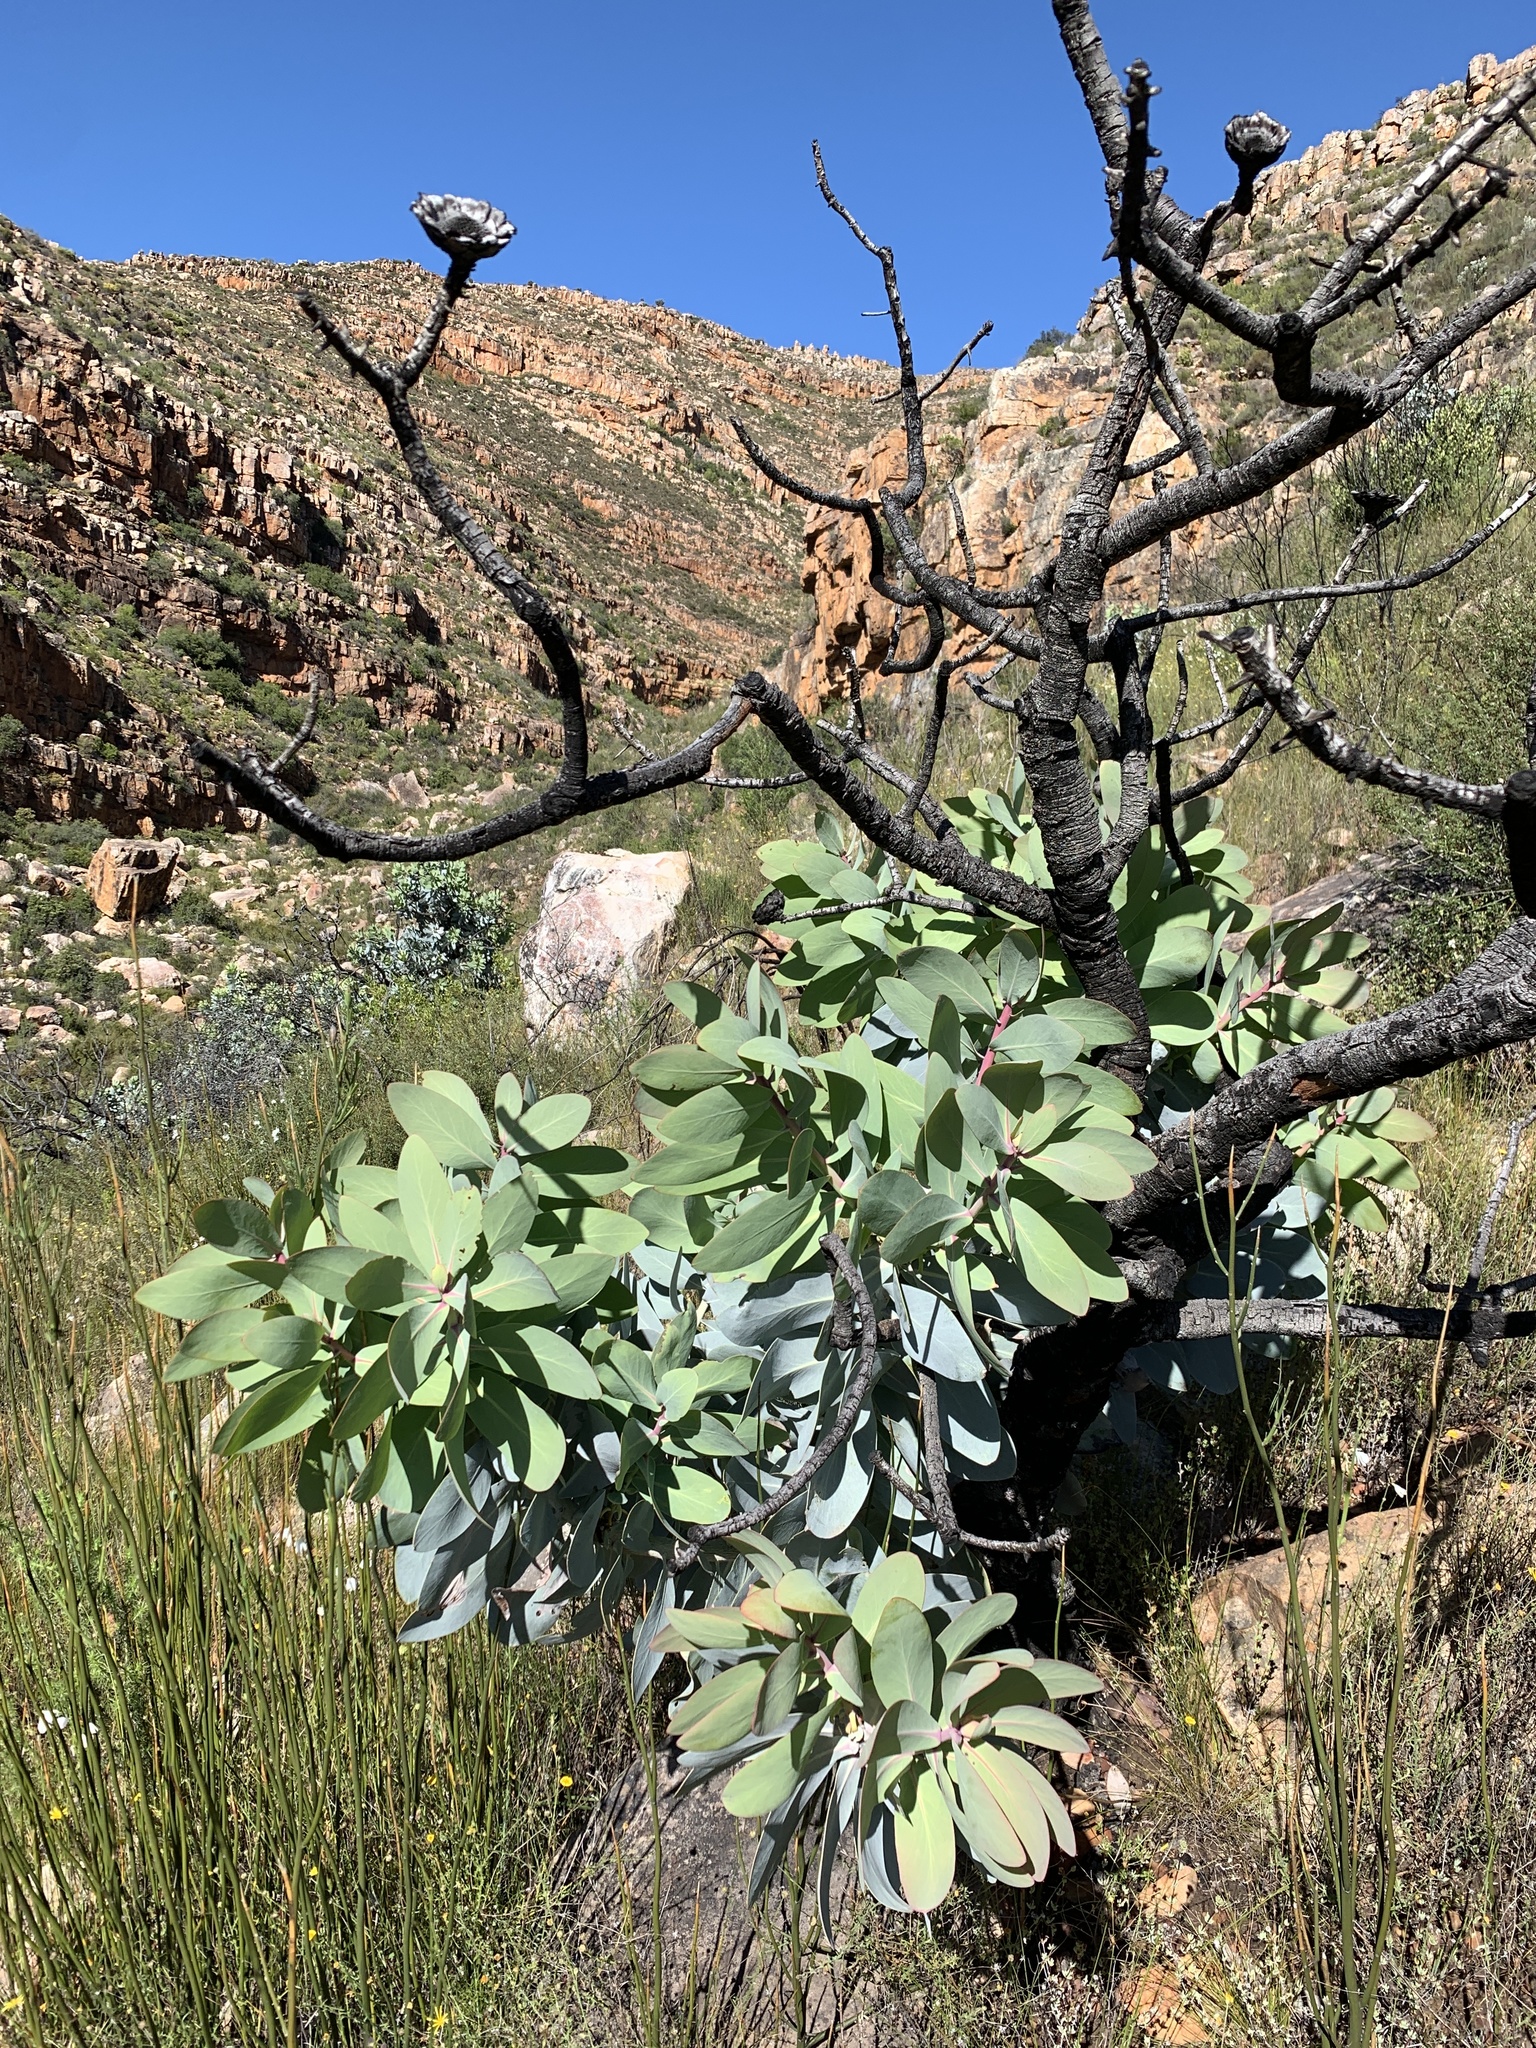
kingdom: Plantae
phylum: Tracheophyta
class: Magnoliopsida
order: Proteales
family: Proteaceae
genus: Protea
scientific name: Protea nitida
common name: Tree protea
